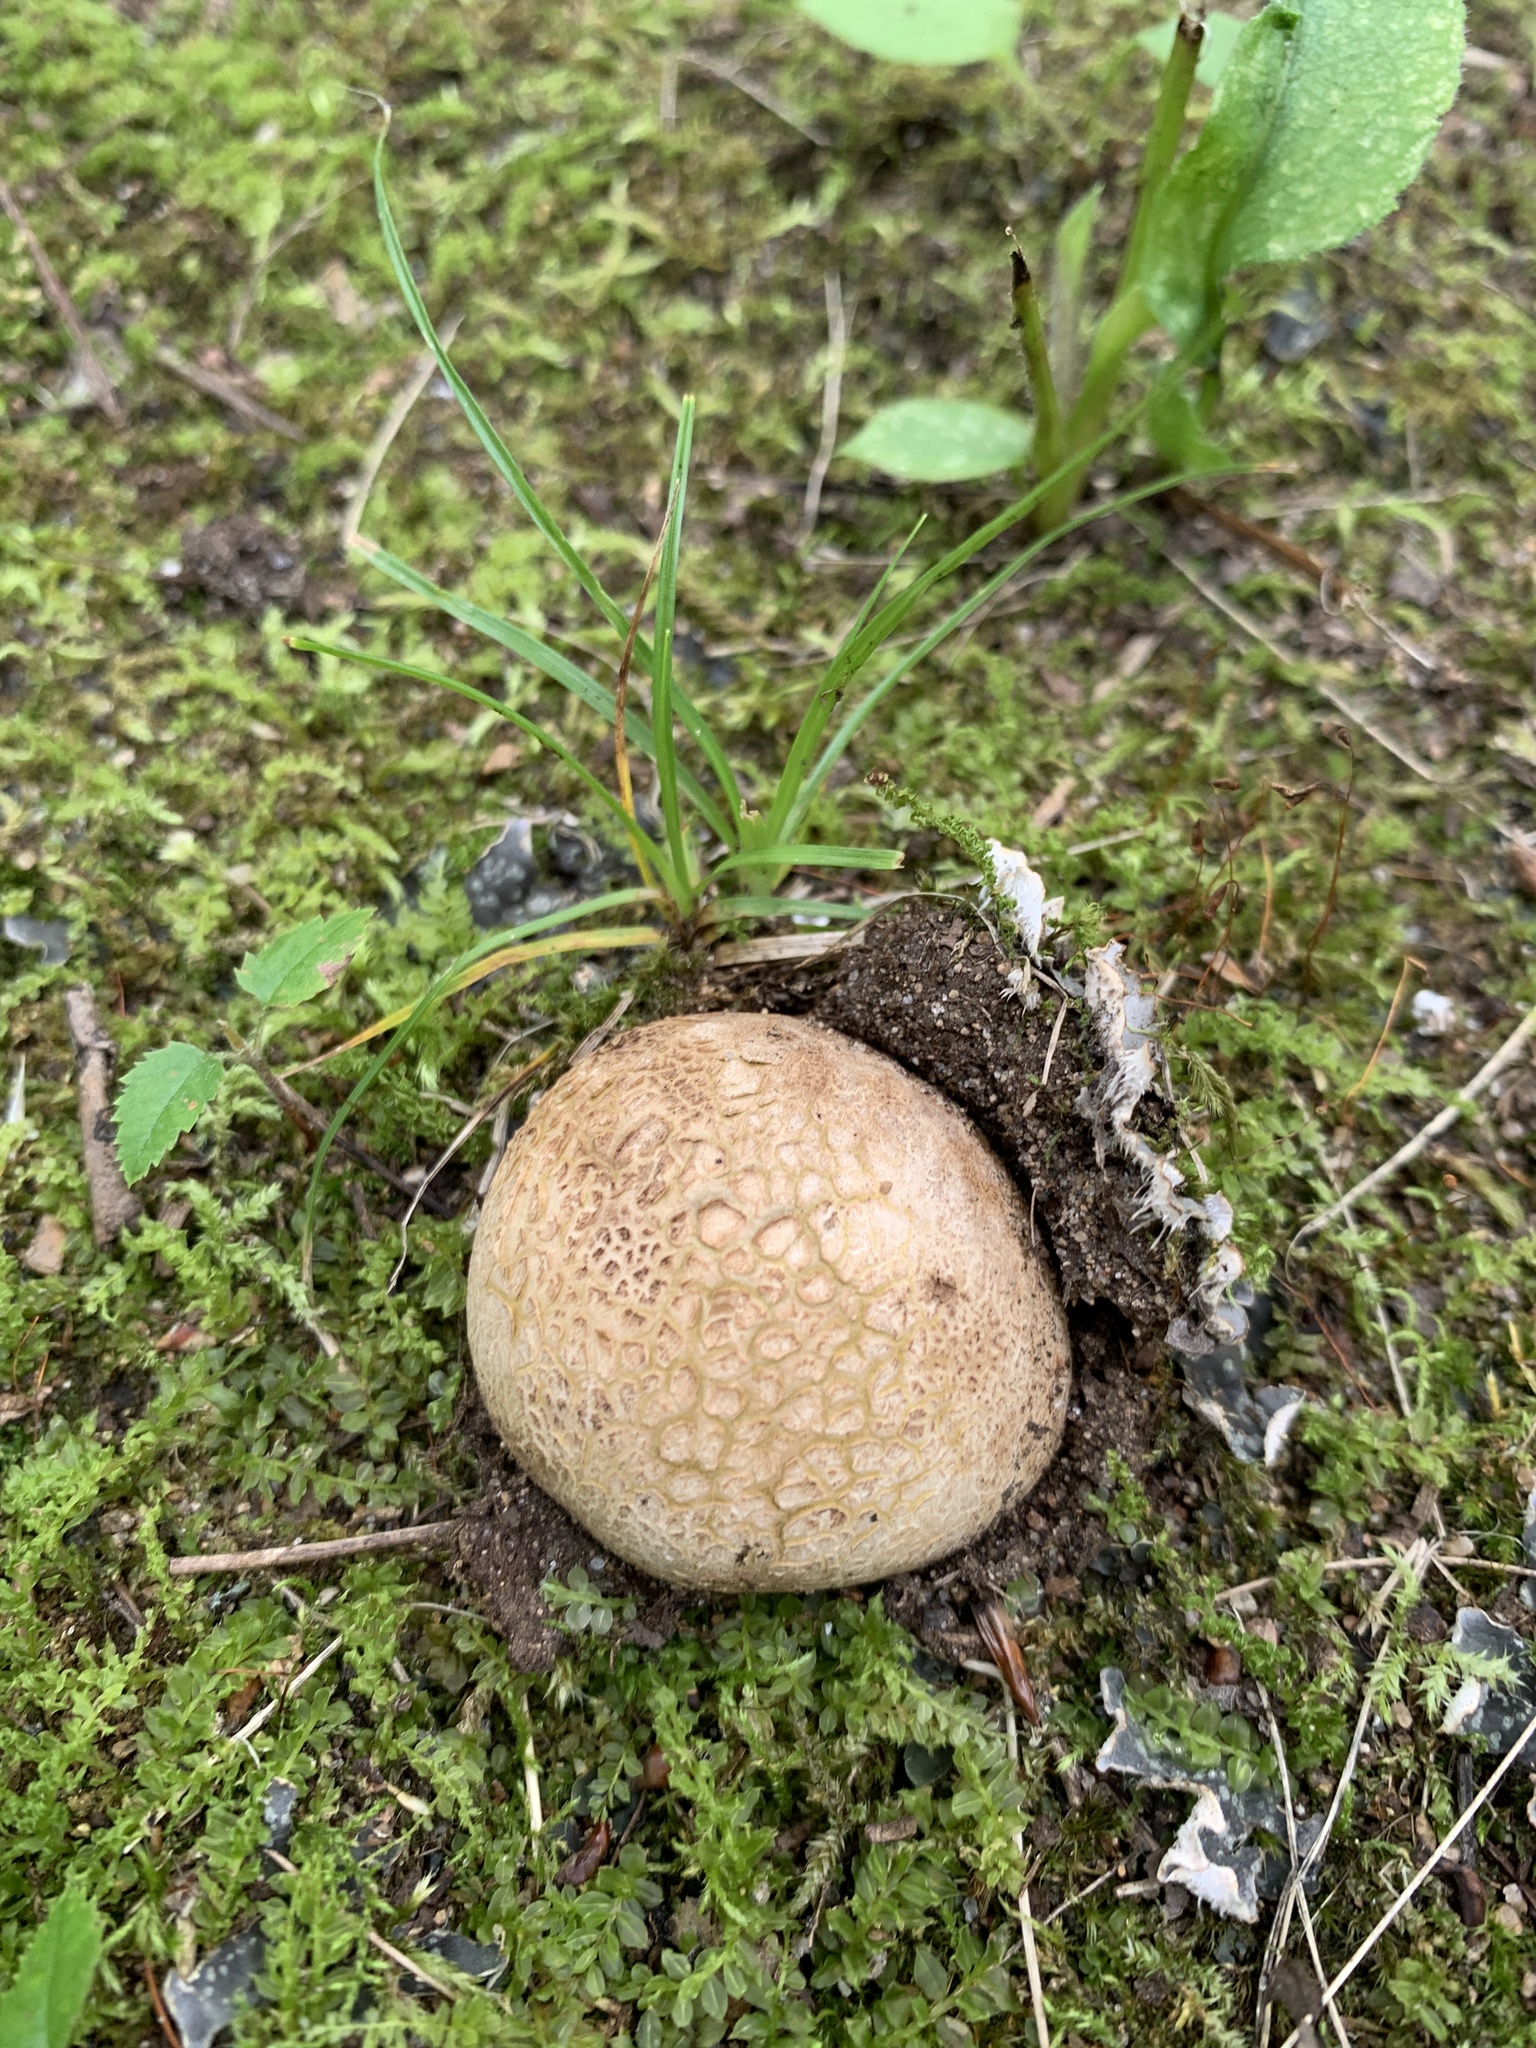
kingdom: Fungi
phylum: Basidiomycota
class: Agaricomycetes
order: Boletales
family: Sclerodermataceae
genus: Scleroderma
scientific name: Scleroderma citrinum
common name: Common earthball
